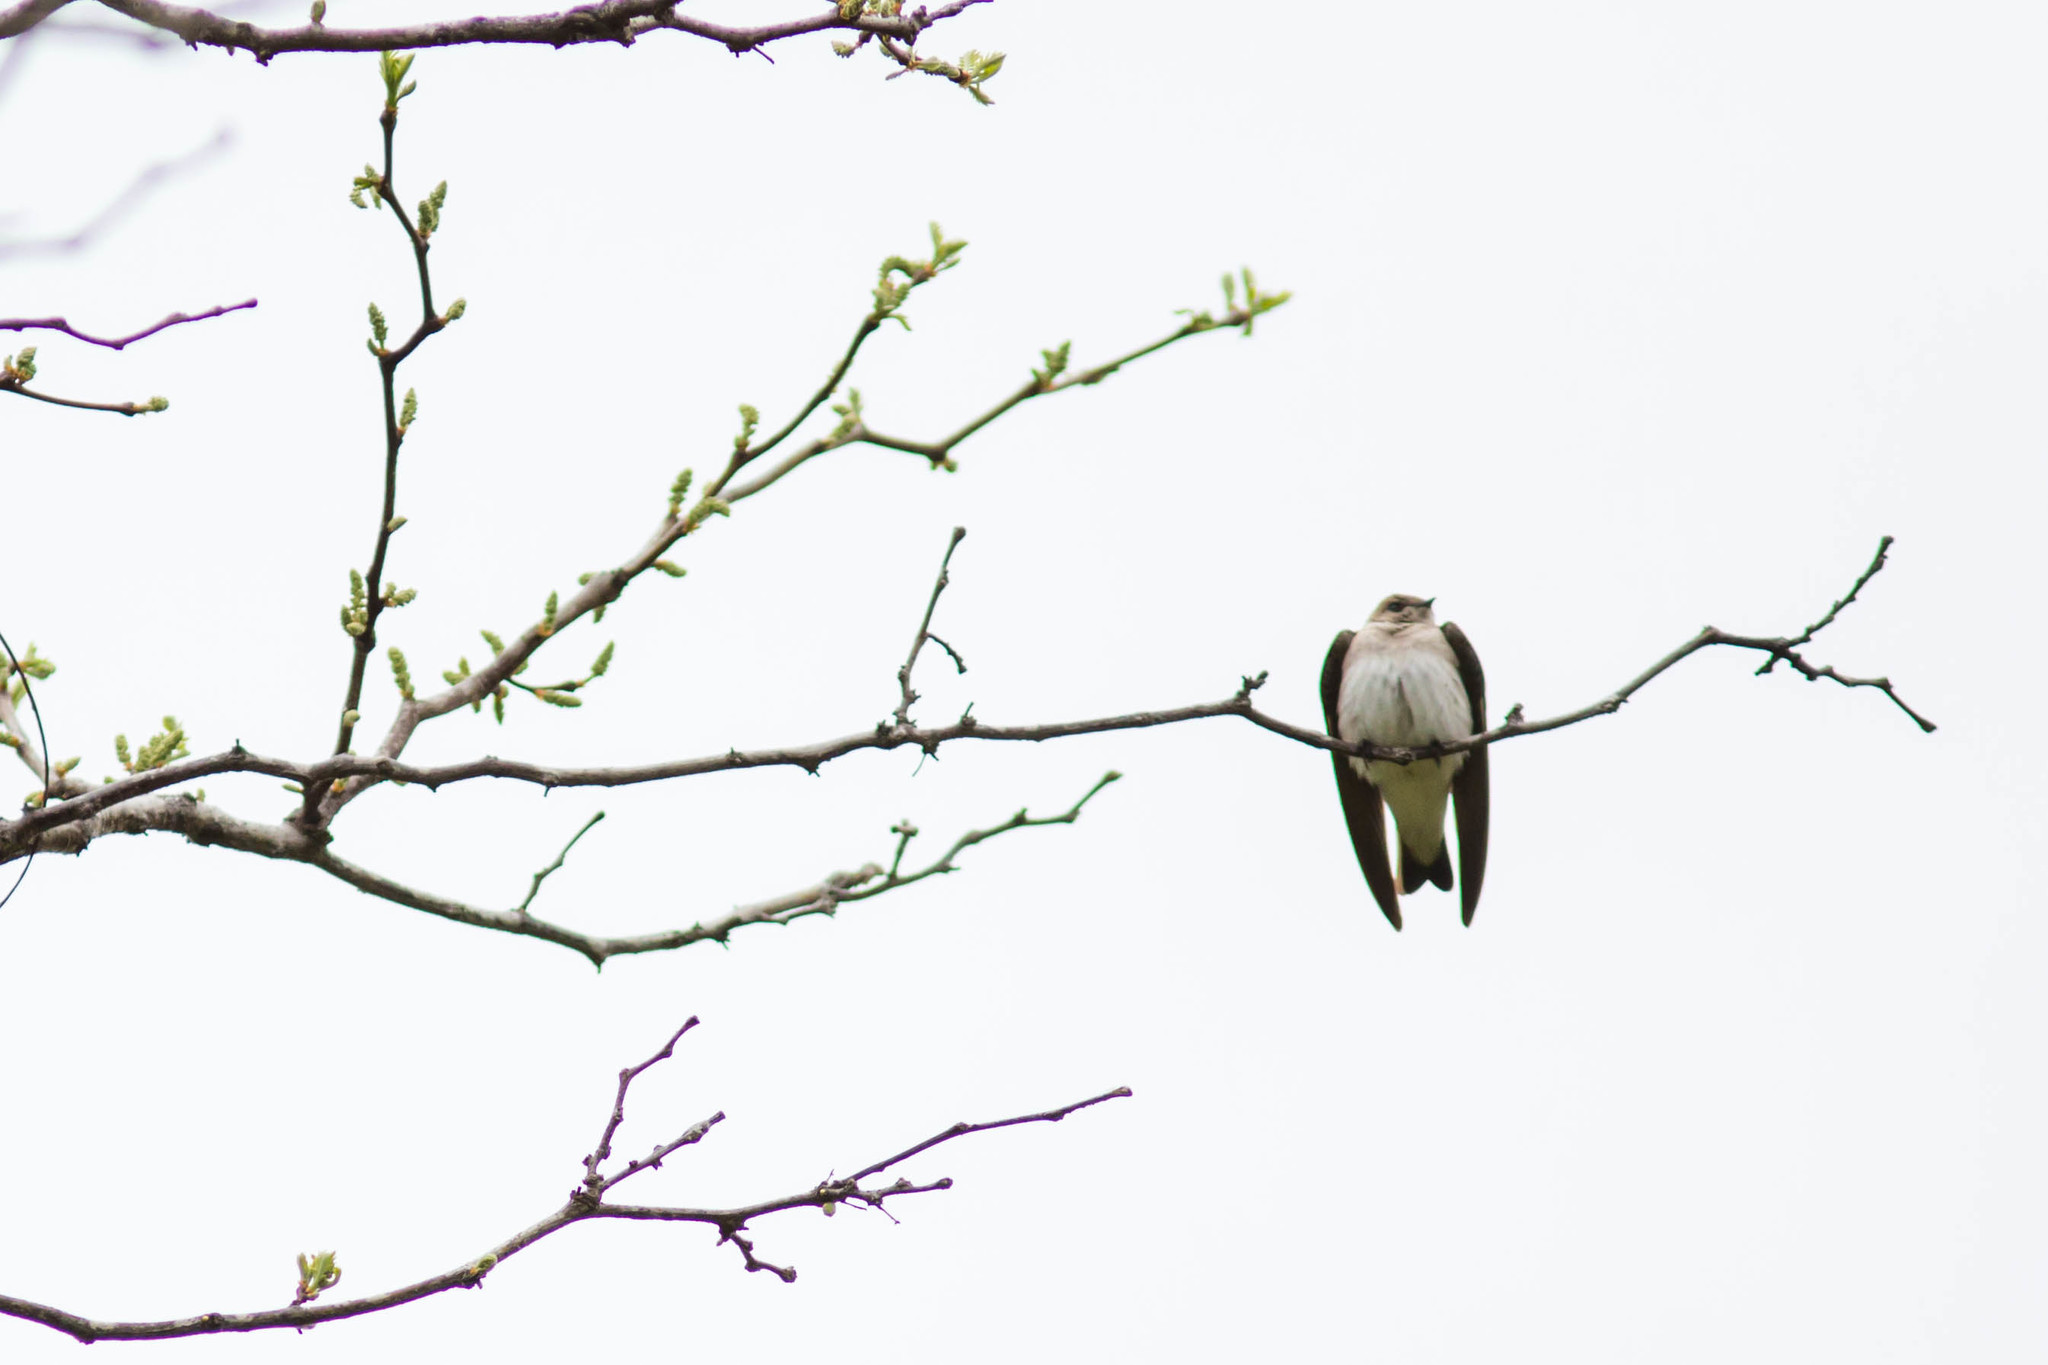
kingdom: Animalia
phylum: Chordata
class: Aves
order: Passeriformes
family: Hirundinidae
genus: Stelgidopteryx
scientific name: Stelgidopteryx serripennis
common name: Northern rough-winged swallow
